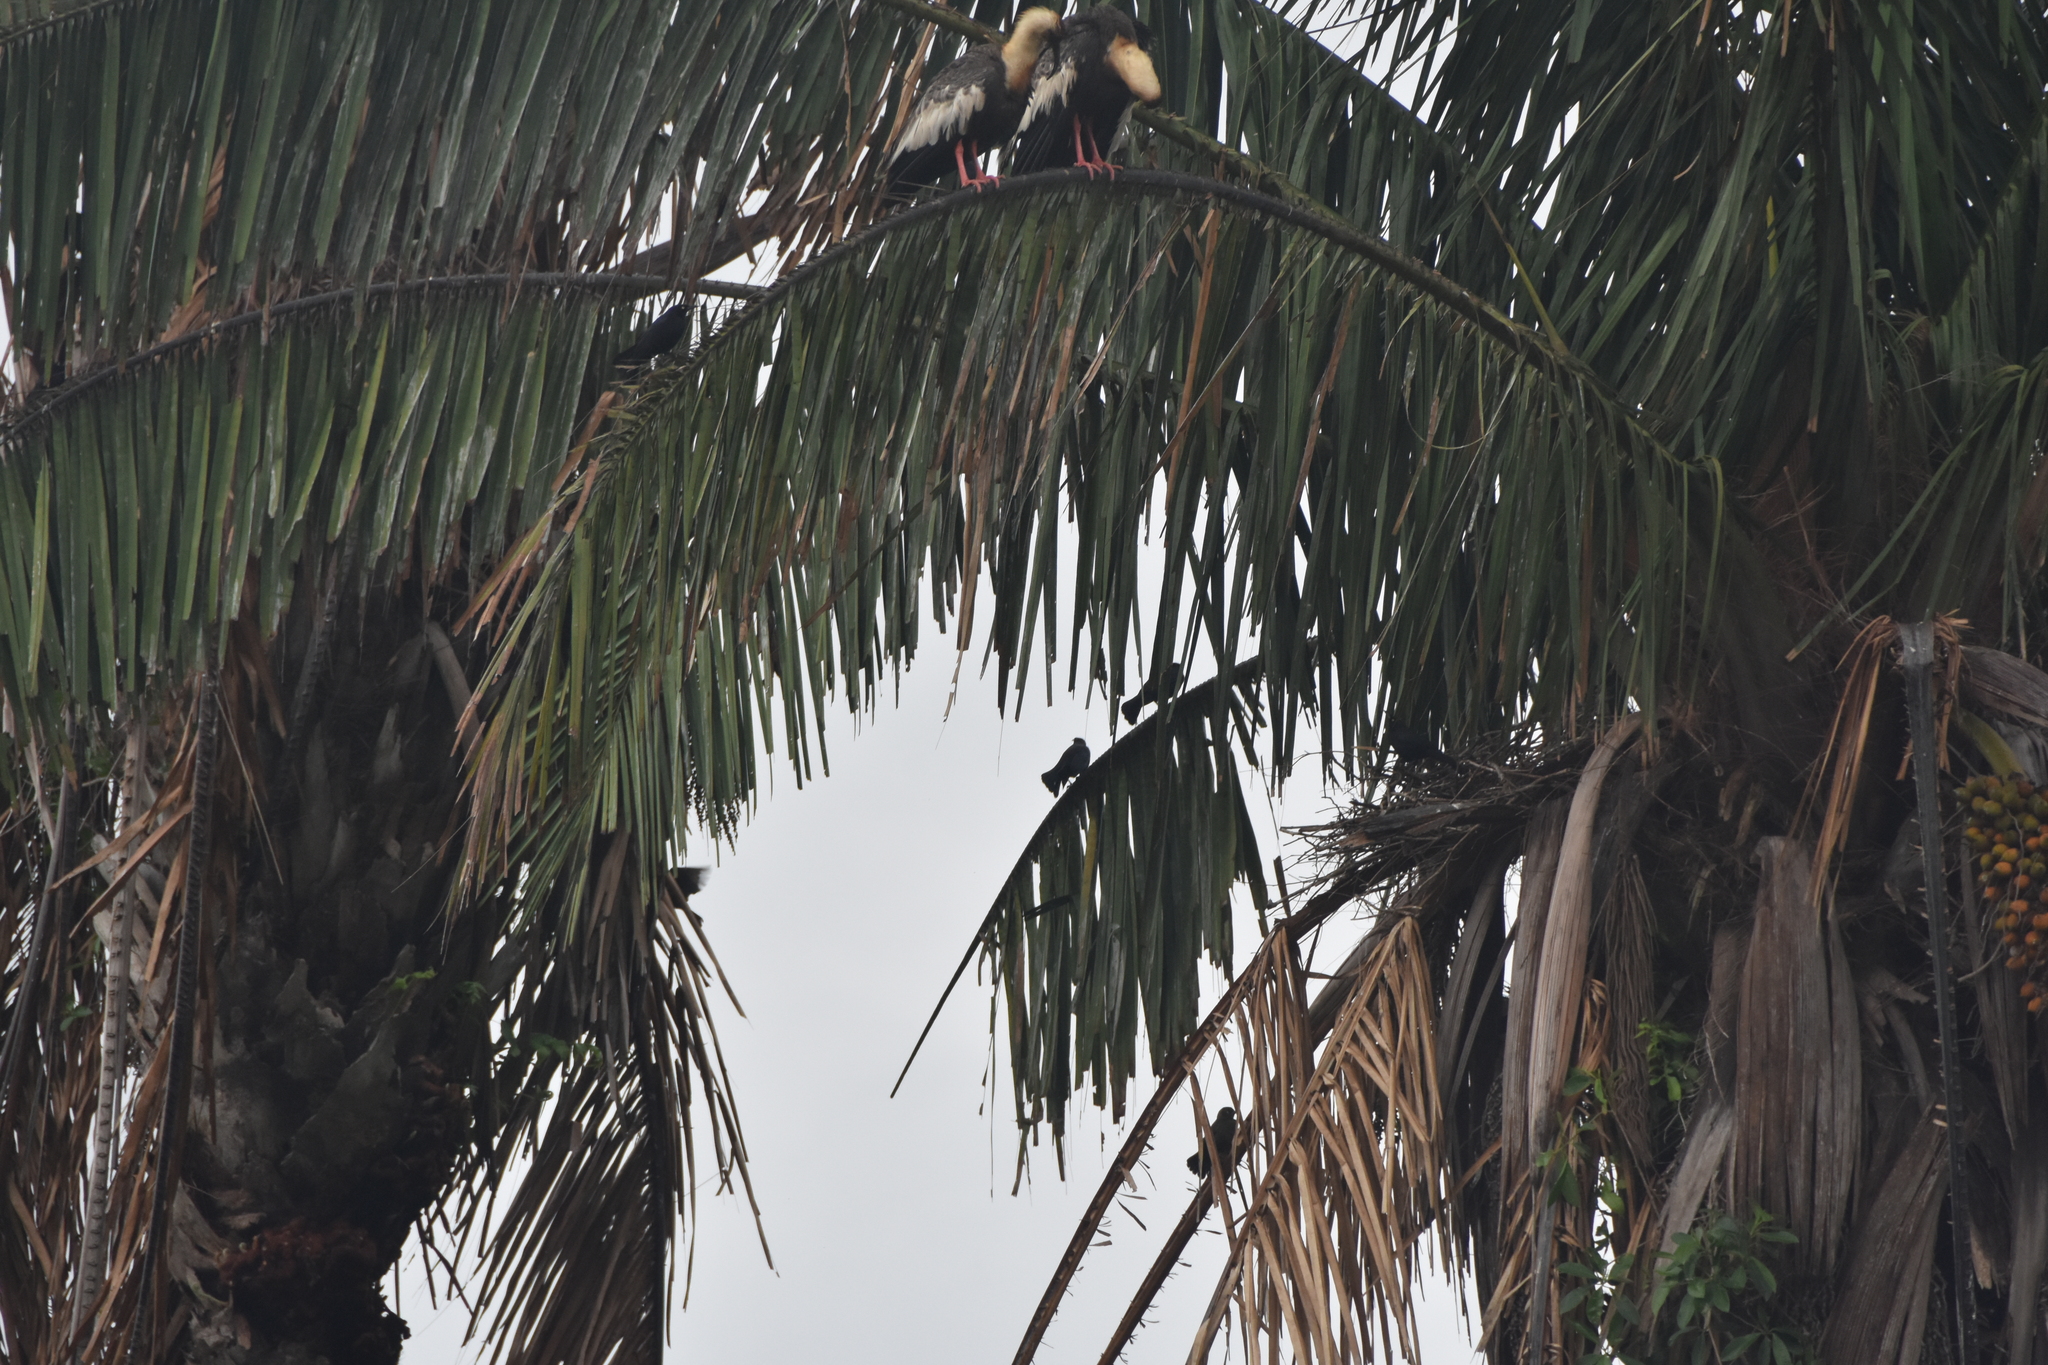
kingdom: Animalia
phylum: Chordata
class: Aves
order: Pelecaniformes
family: Threskiornithidae
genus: Theristicus
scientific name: Theristicus caudatus
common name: Buff-necked ibis
